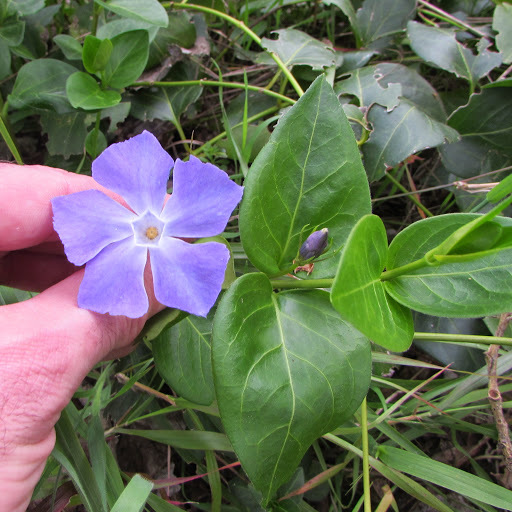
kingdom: Plantae
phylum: Tracheophyta
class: Magnoliopsida
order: Gentianales
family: Apocynaceae
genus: Vinca
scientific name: Vinca major
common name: Greater periwinkle
